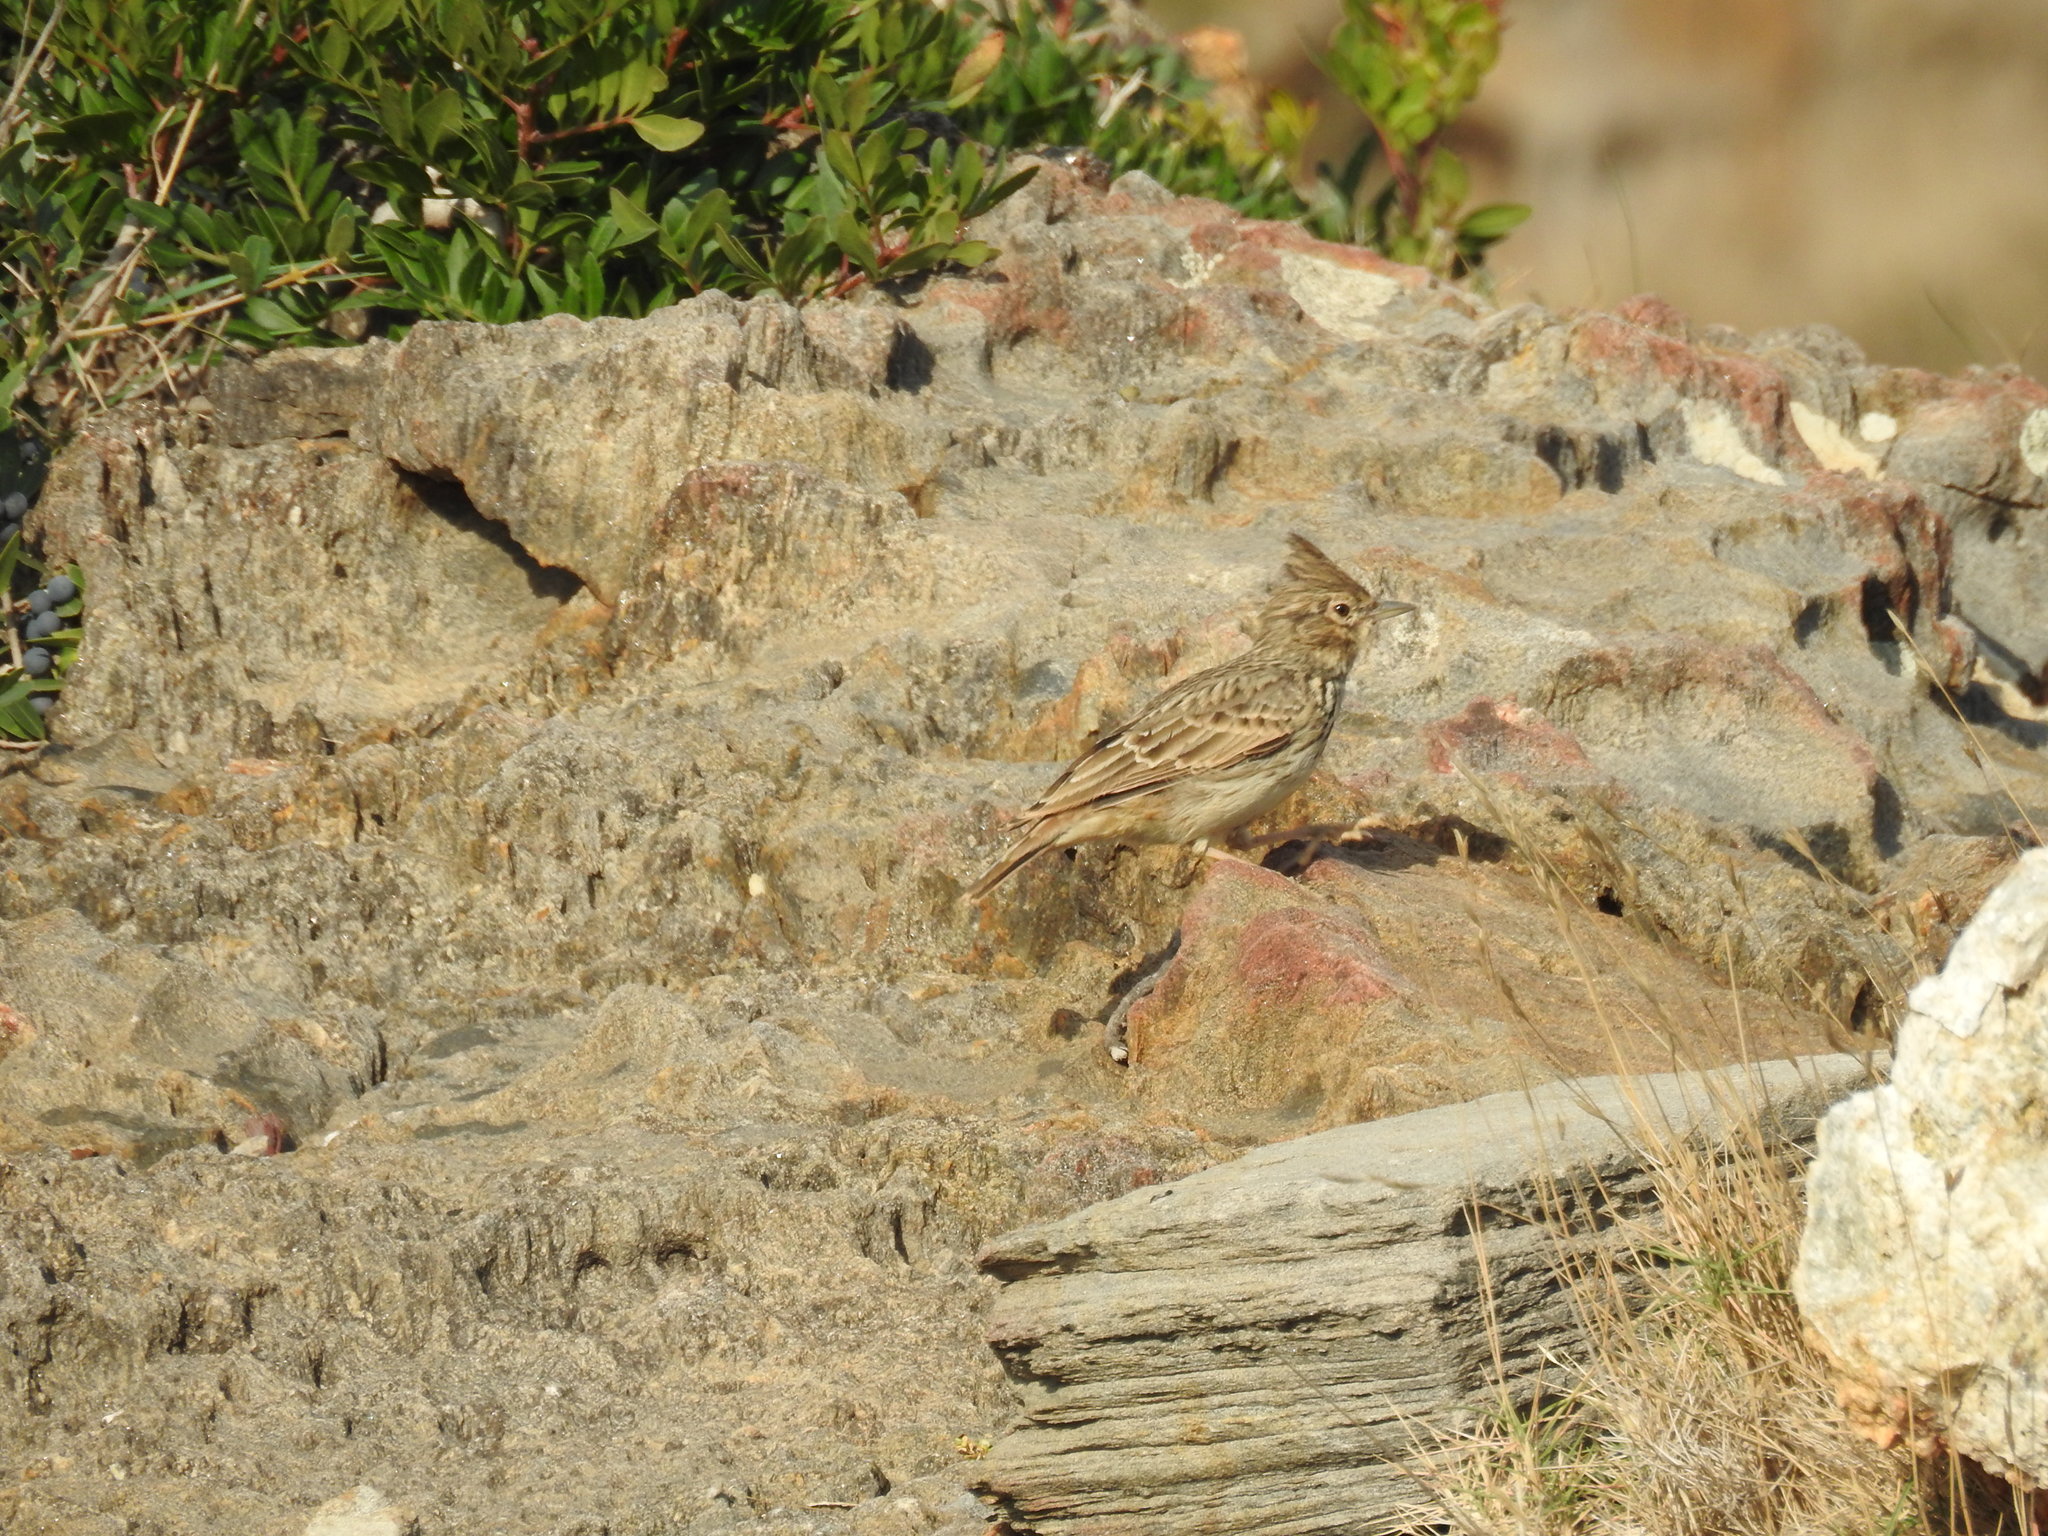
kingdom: Animalia
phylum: Chordata
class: Aves
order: Passeriformes
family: Alaudidae
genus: Galerida
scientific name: Galerida theklae
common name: Thekla lark
